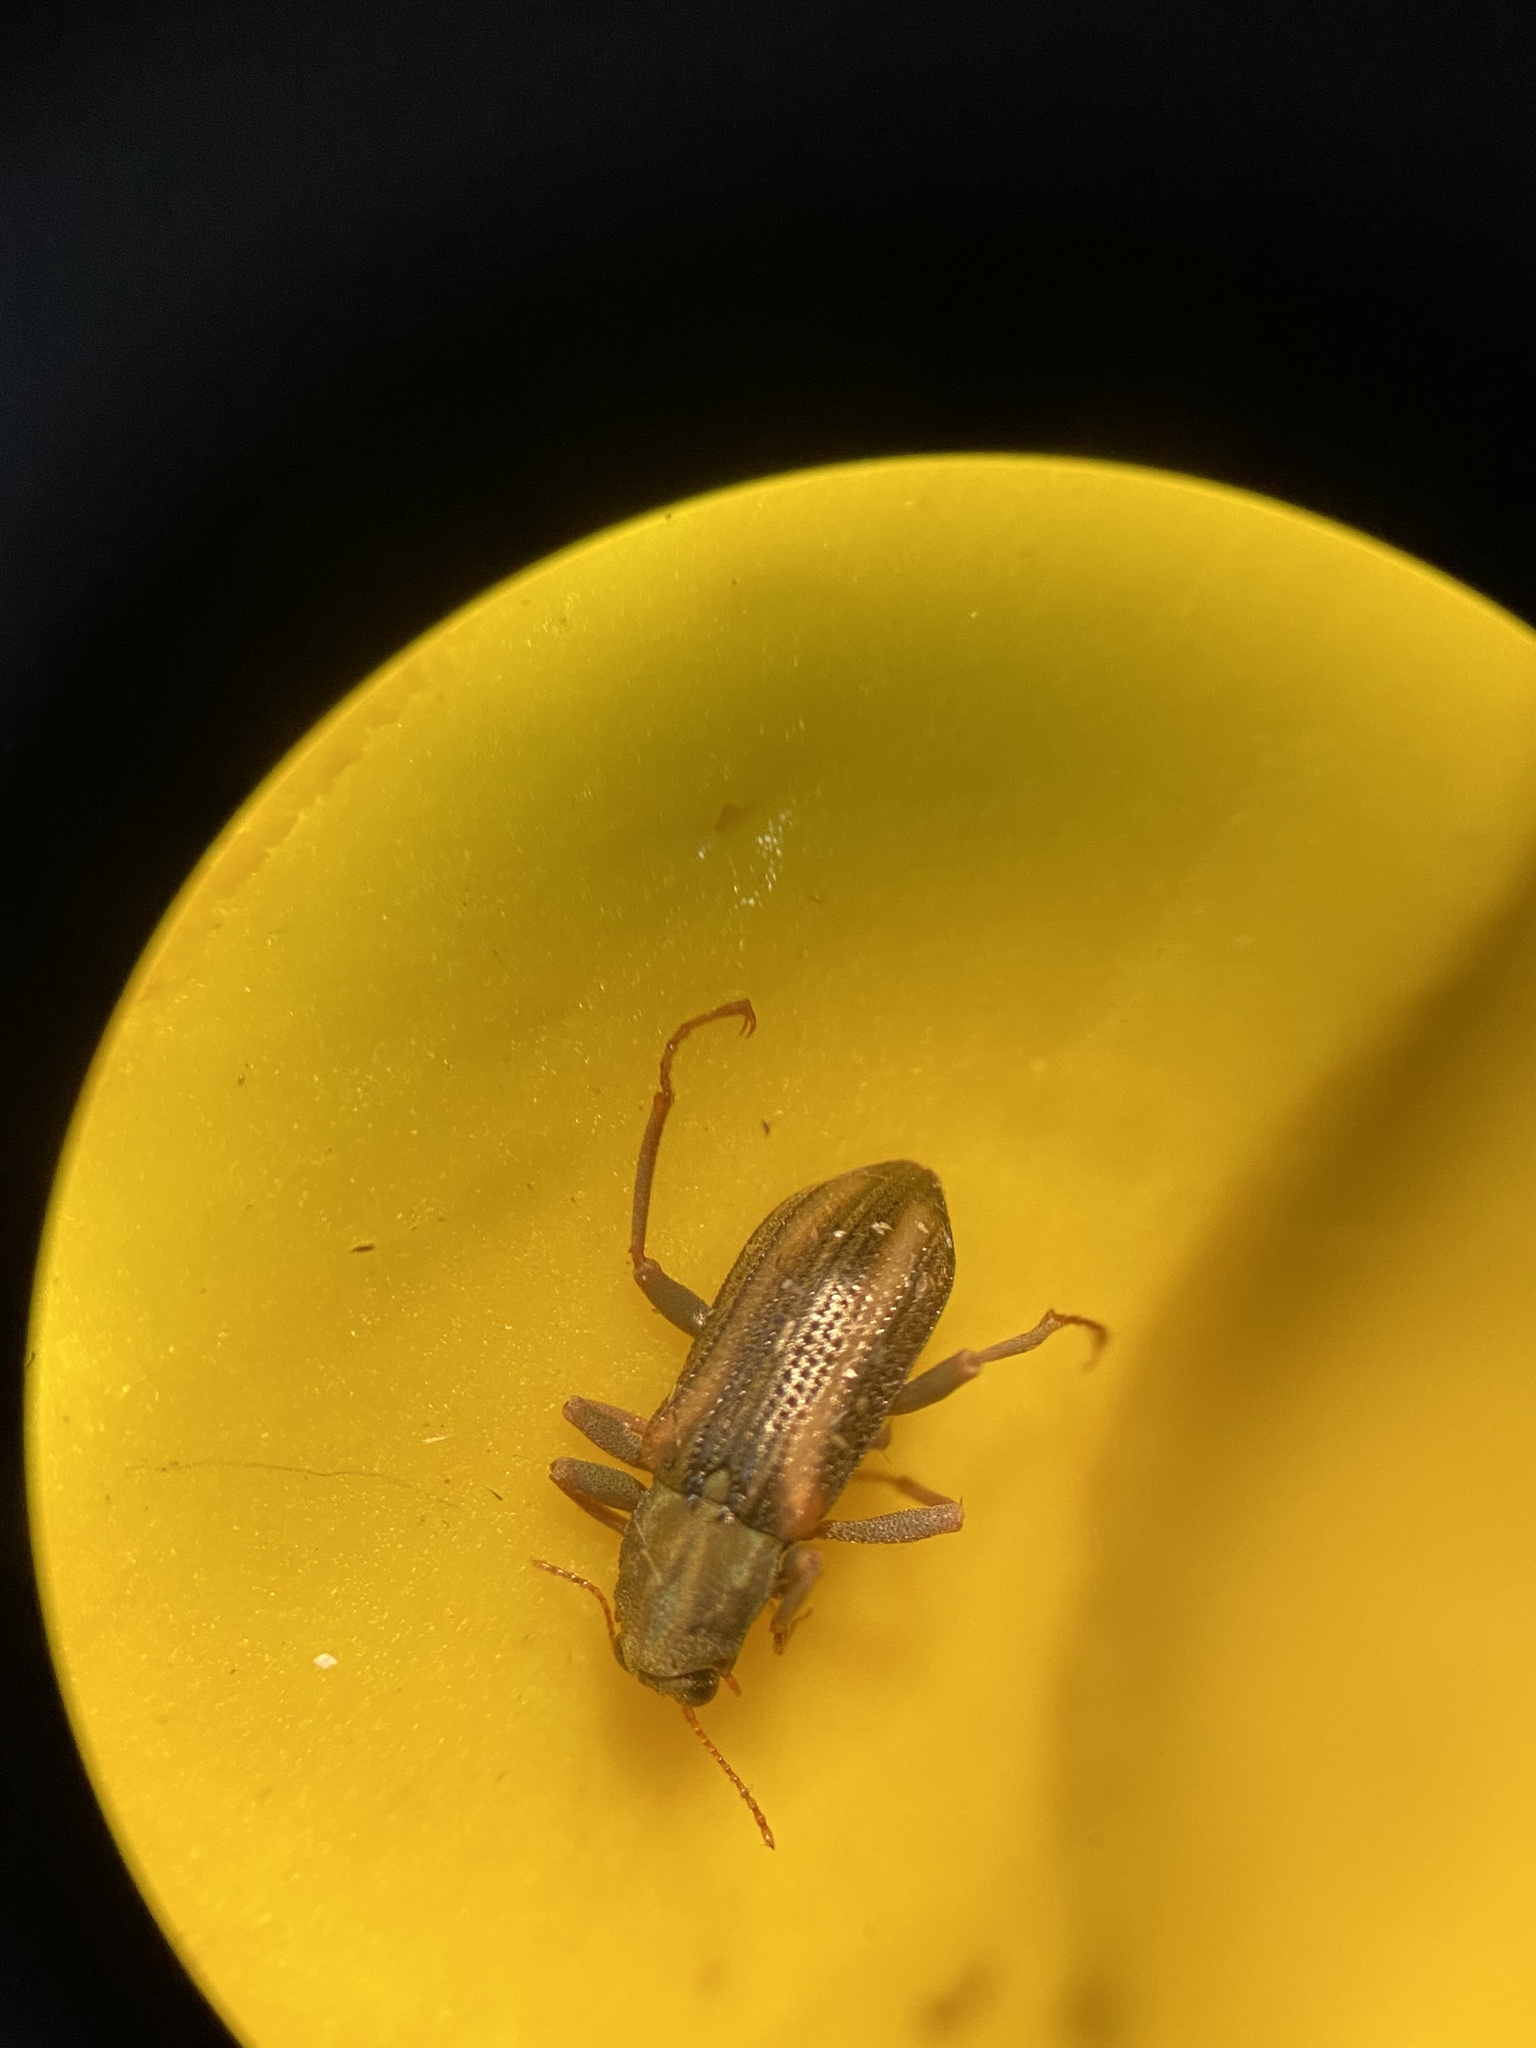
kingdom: Animalia
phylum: Arthropoda
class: Insecta
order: Coleoptera
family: Elmidae
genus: Stenelmis
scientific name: Stenelmis cheryl
